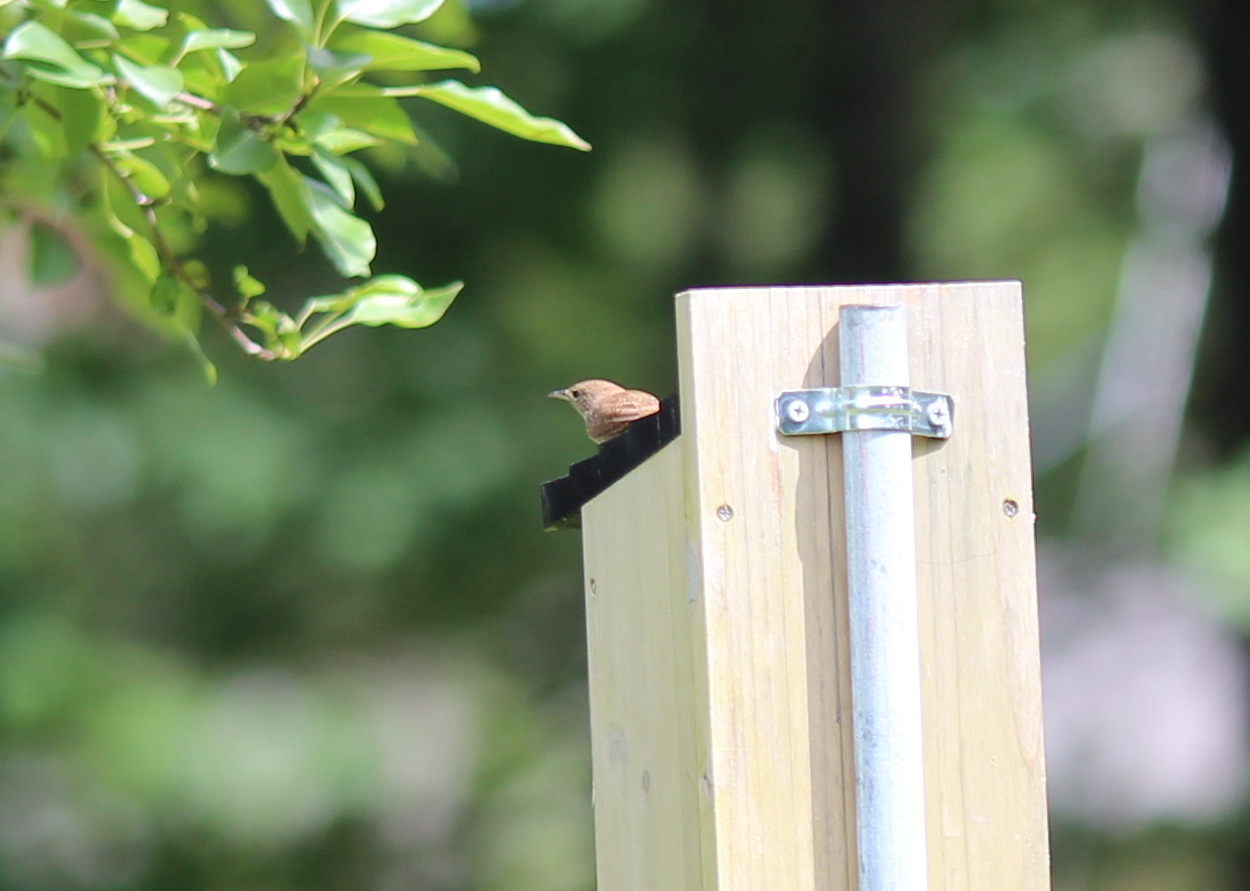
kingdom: Animalia
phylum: Chordata
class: Aves
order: Passeriformes
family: Troglodytidae
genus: Troglodytes
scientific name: Troglodytes aedon
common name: House wren
